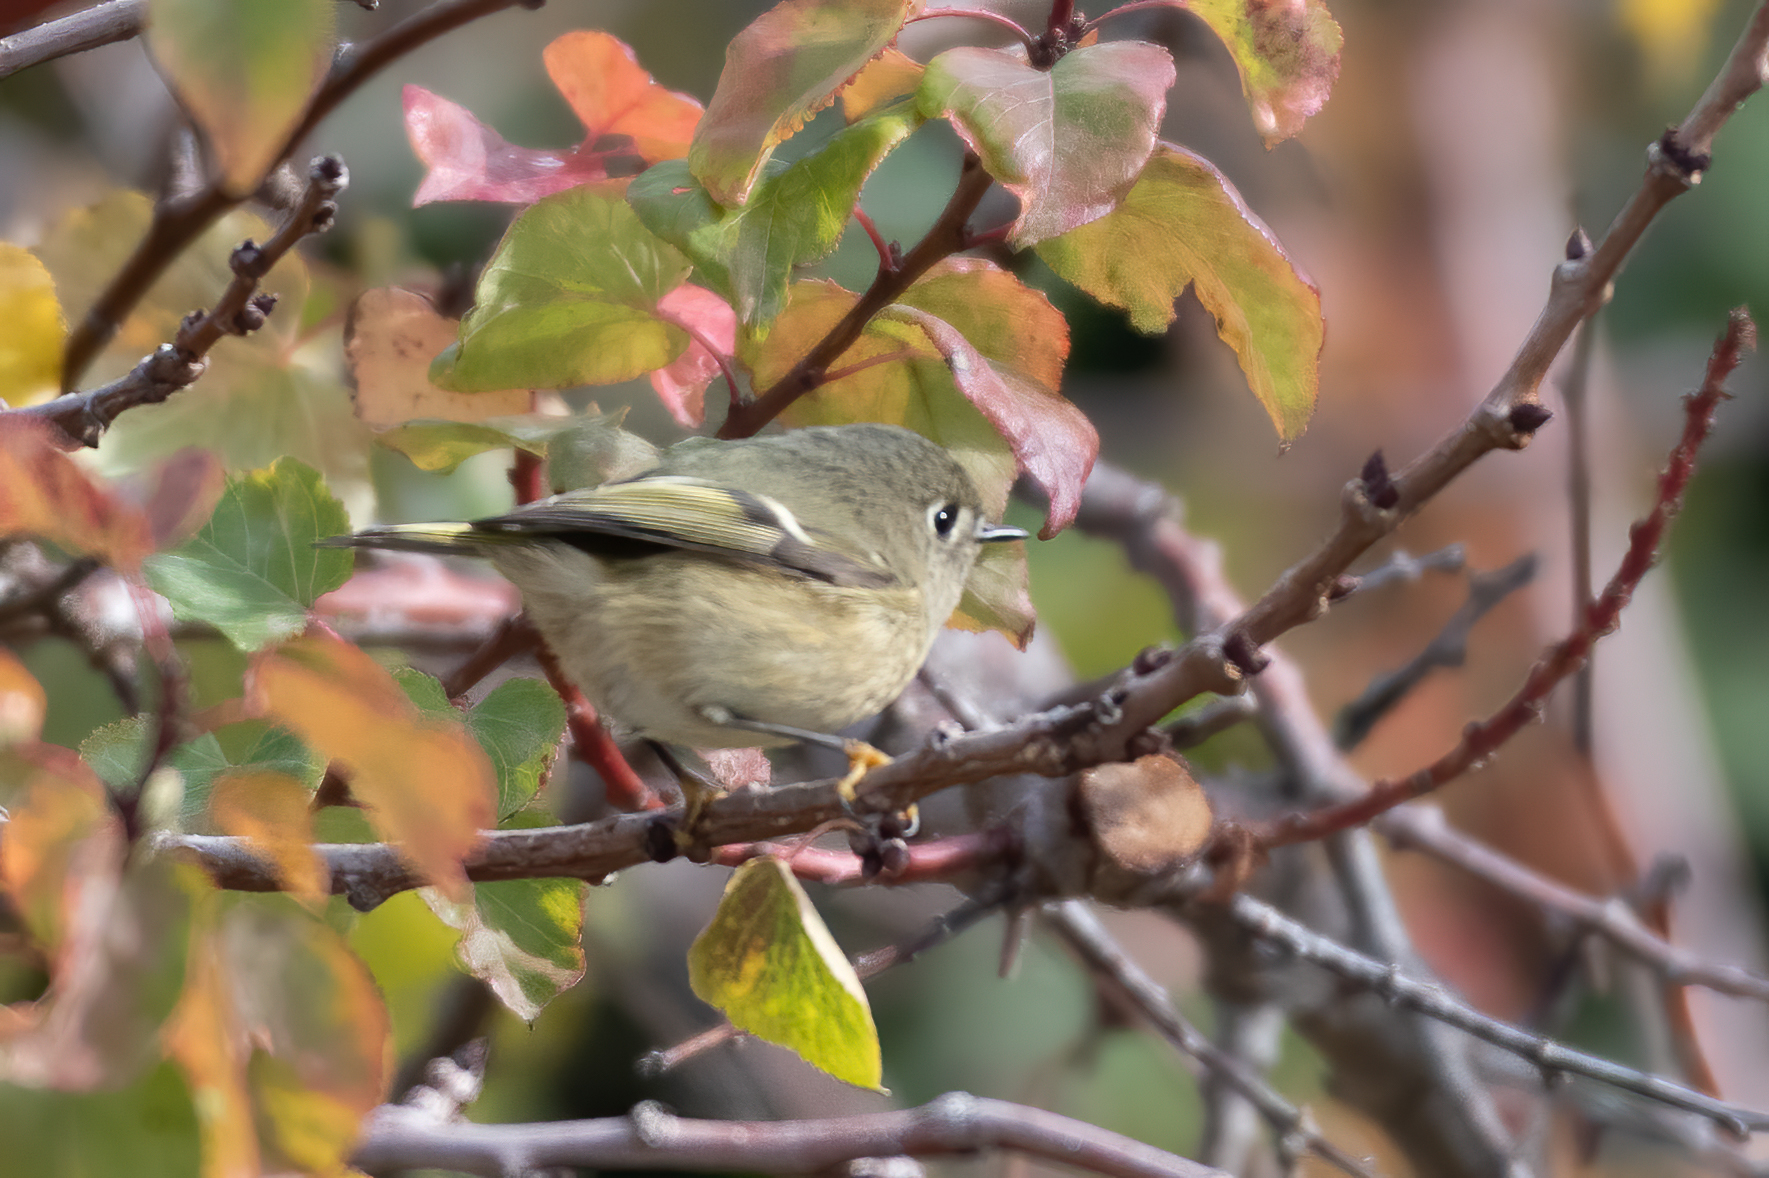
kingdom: Animalia
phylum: Chordata
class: Aves
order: Passeriformes
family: Regulidae
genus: Regulus
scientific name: Regulus calendula
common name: Ruby-crowned kinglet
